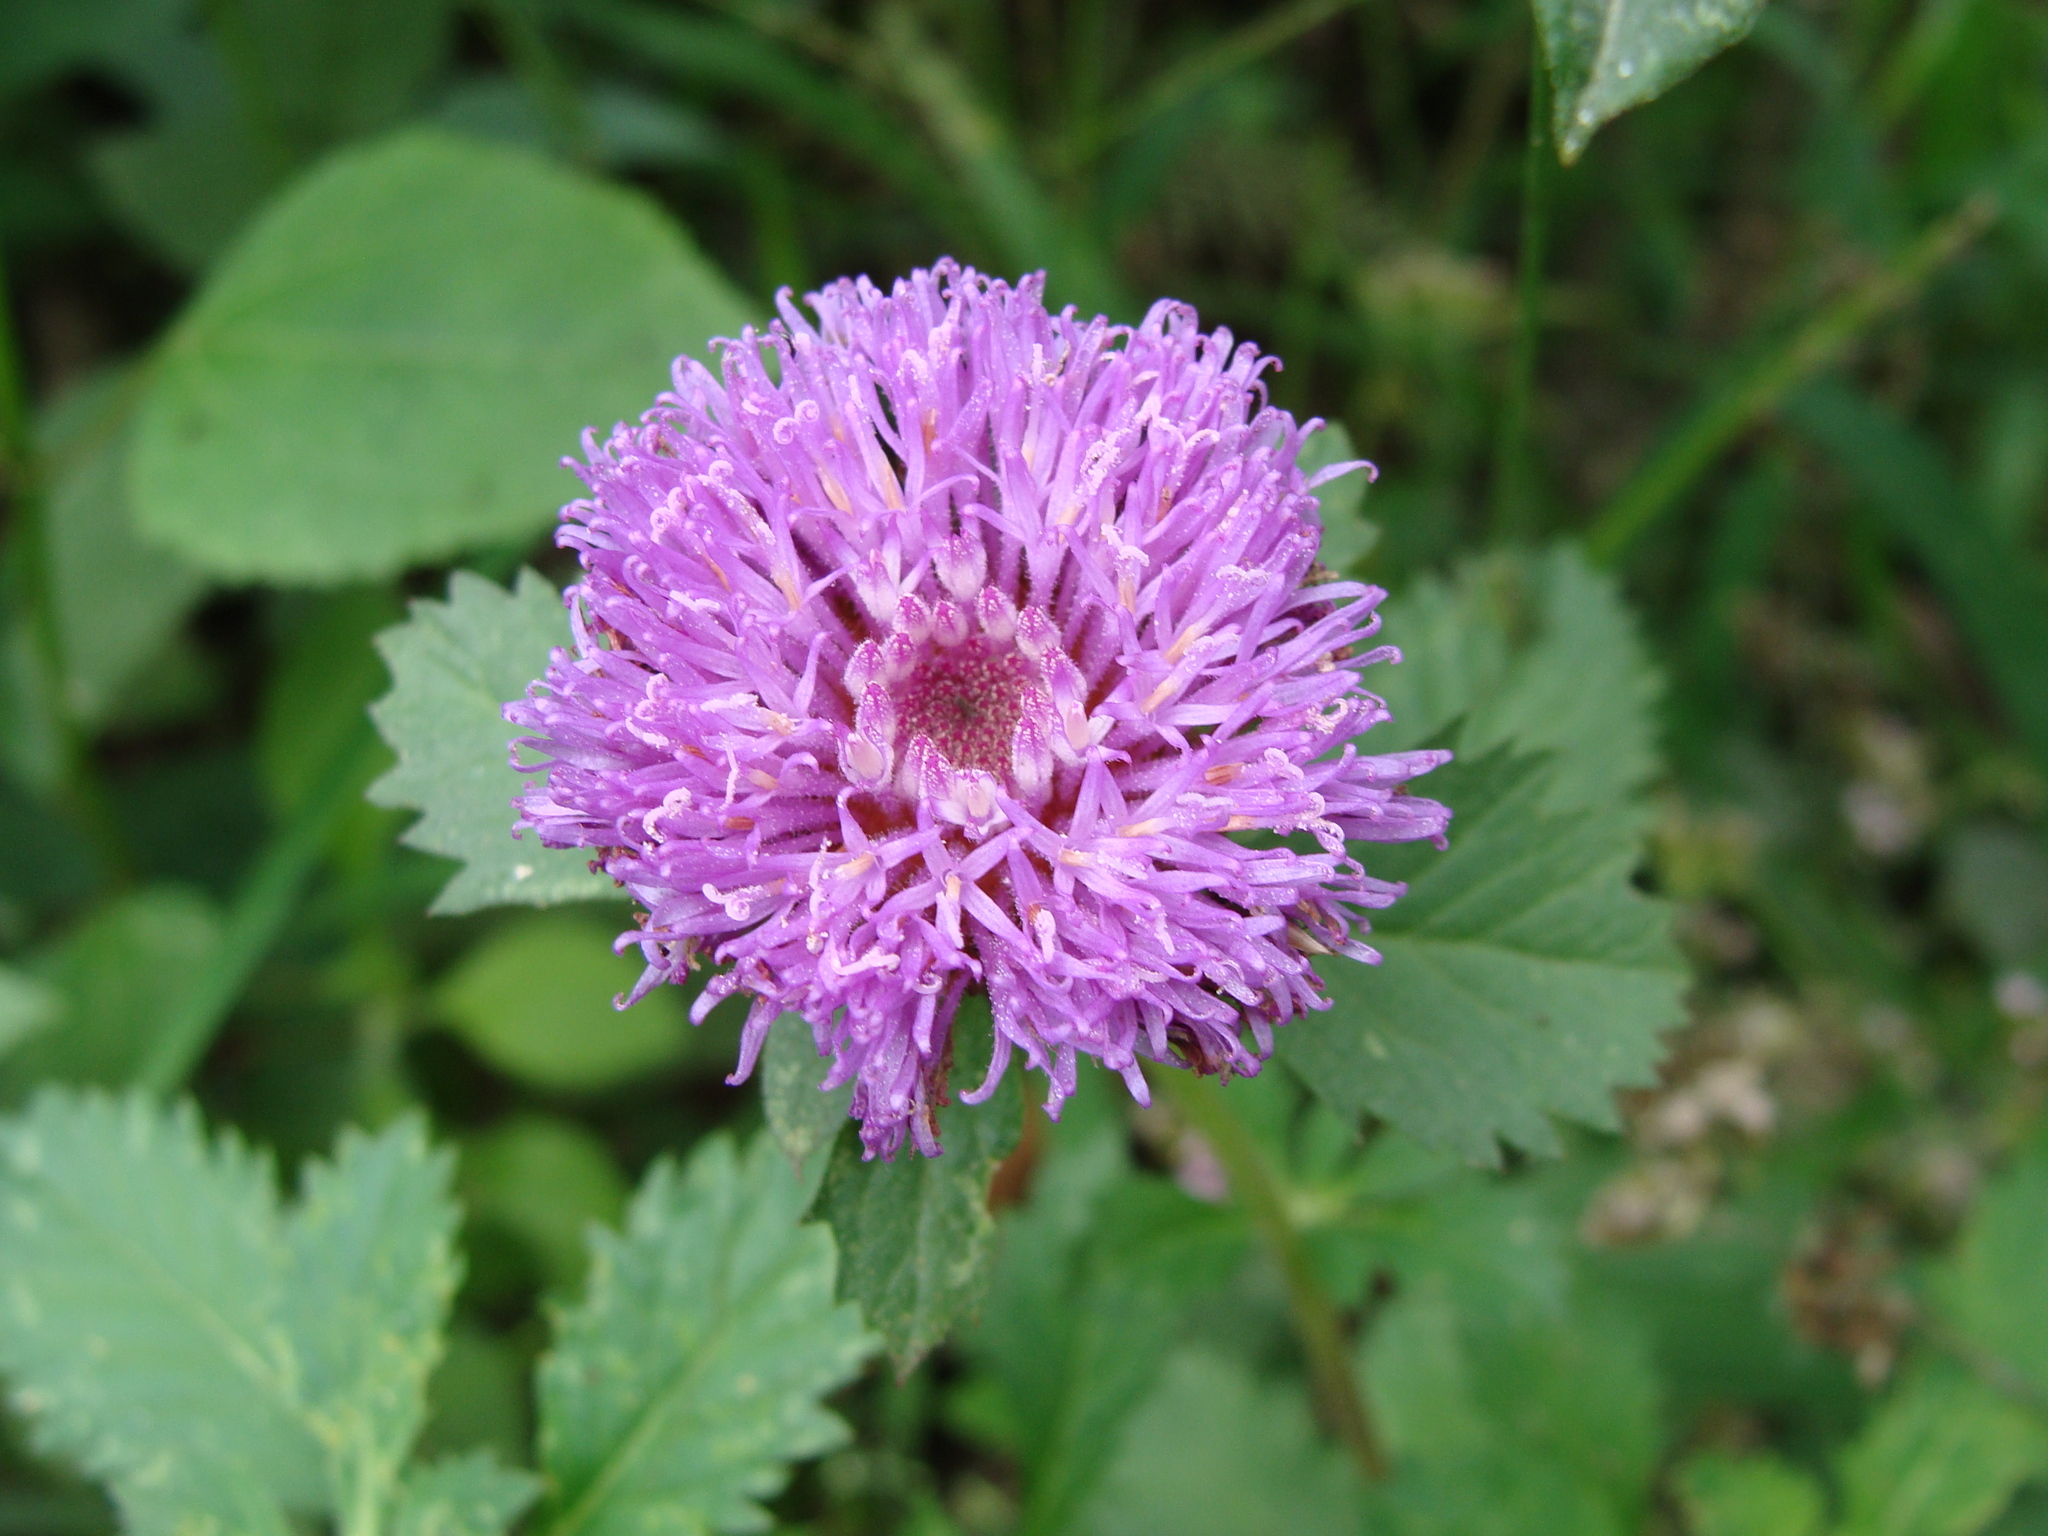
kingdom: Plantae
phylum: Tracheophyta
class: Magnoliopsida
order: Asterales
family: Asteraceae
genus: Centratherum
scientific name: Centratherum punctatum
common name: Larkdaisy
